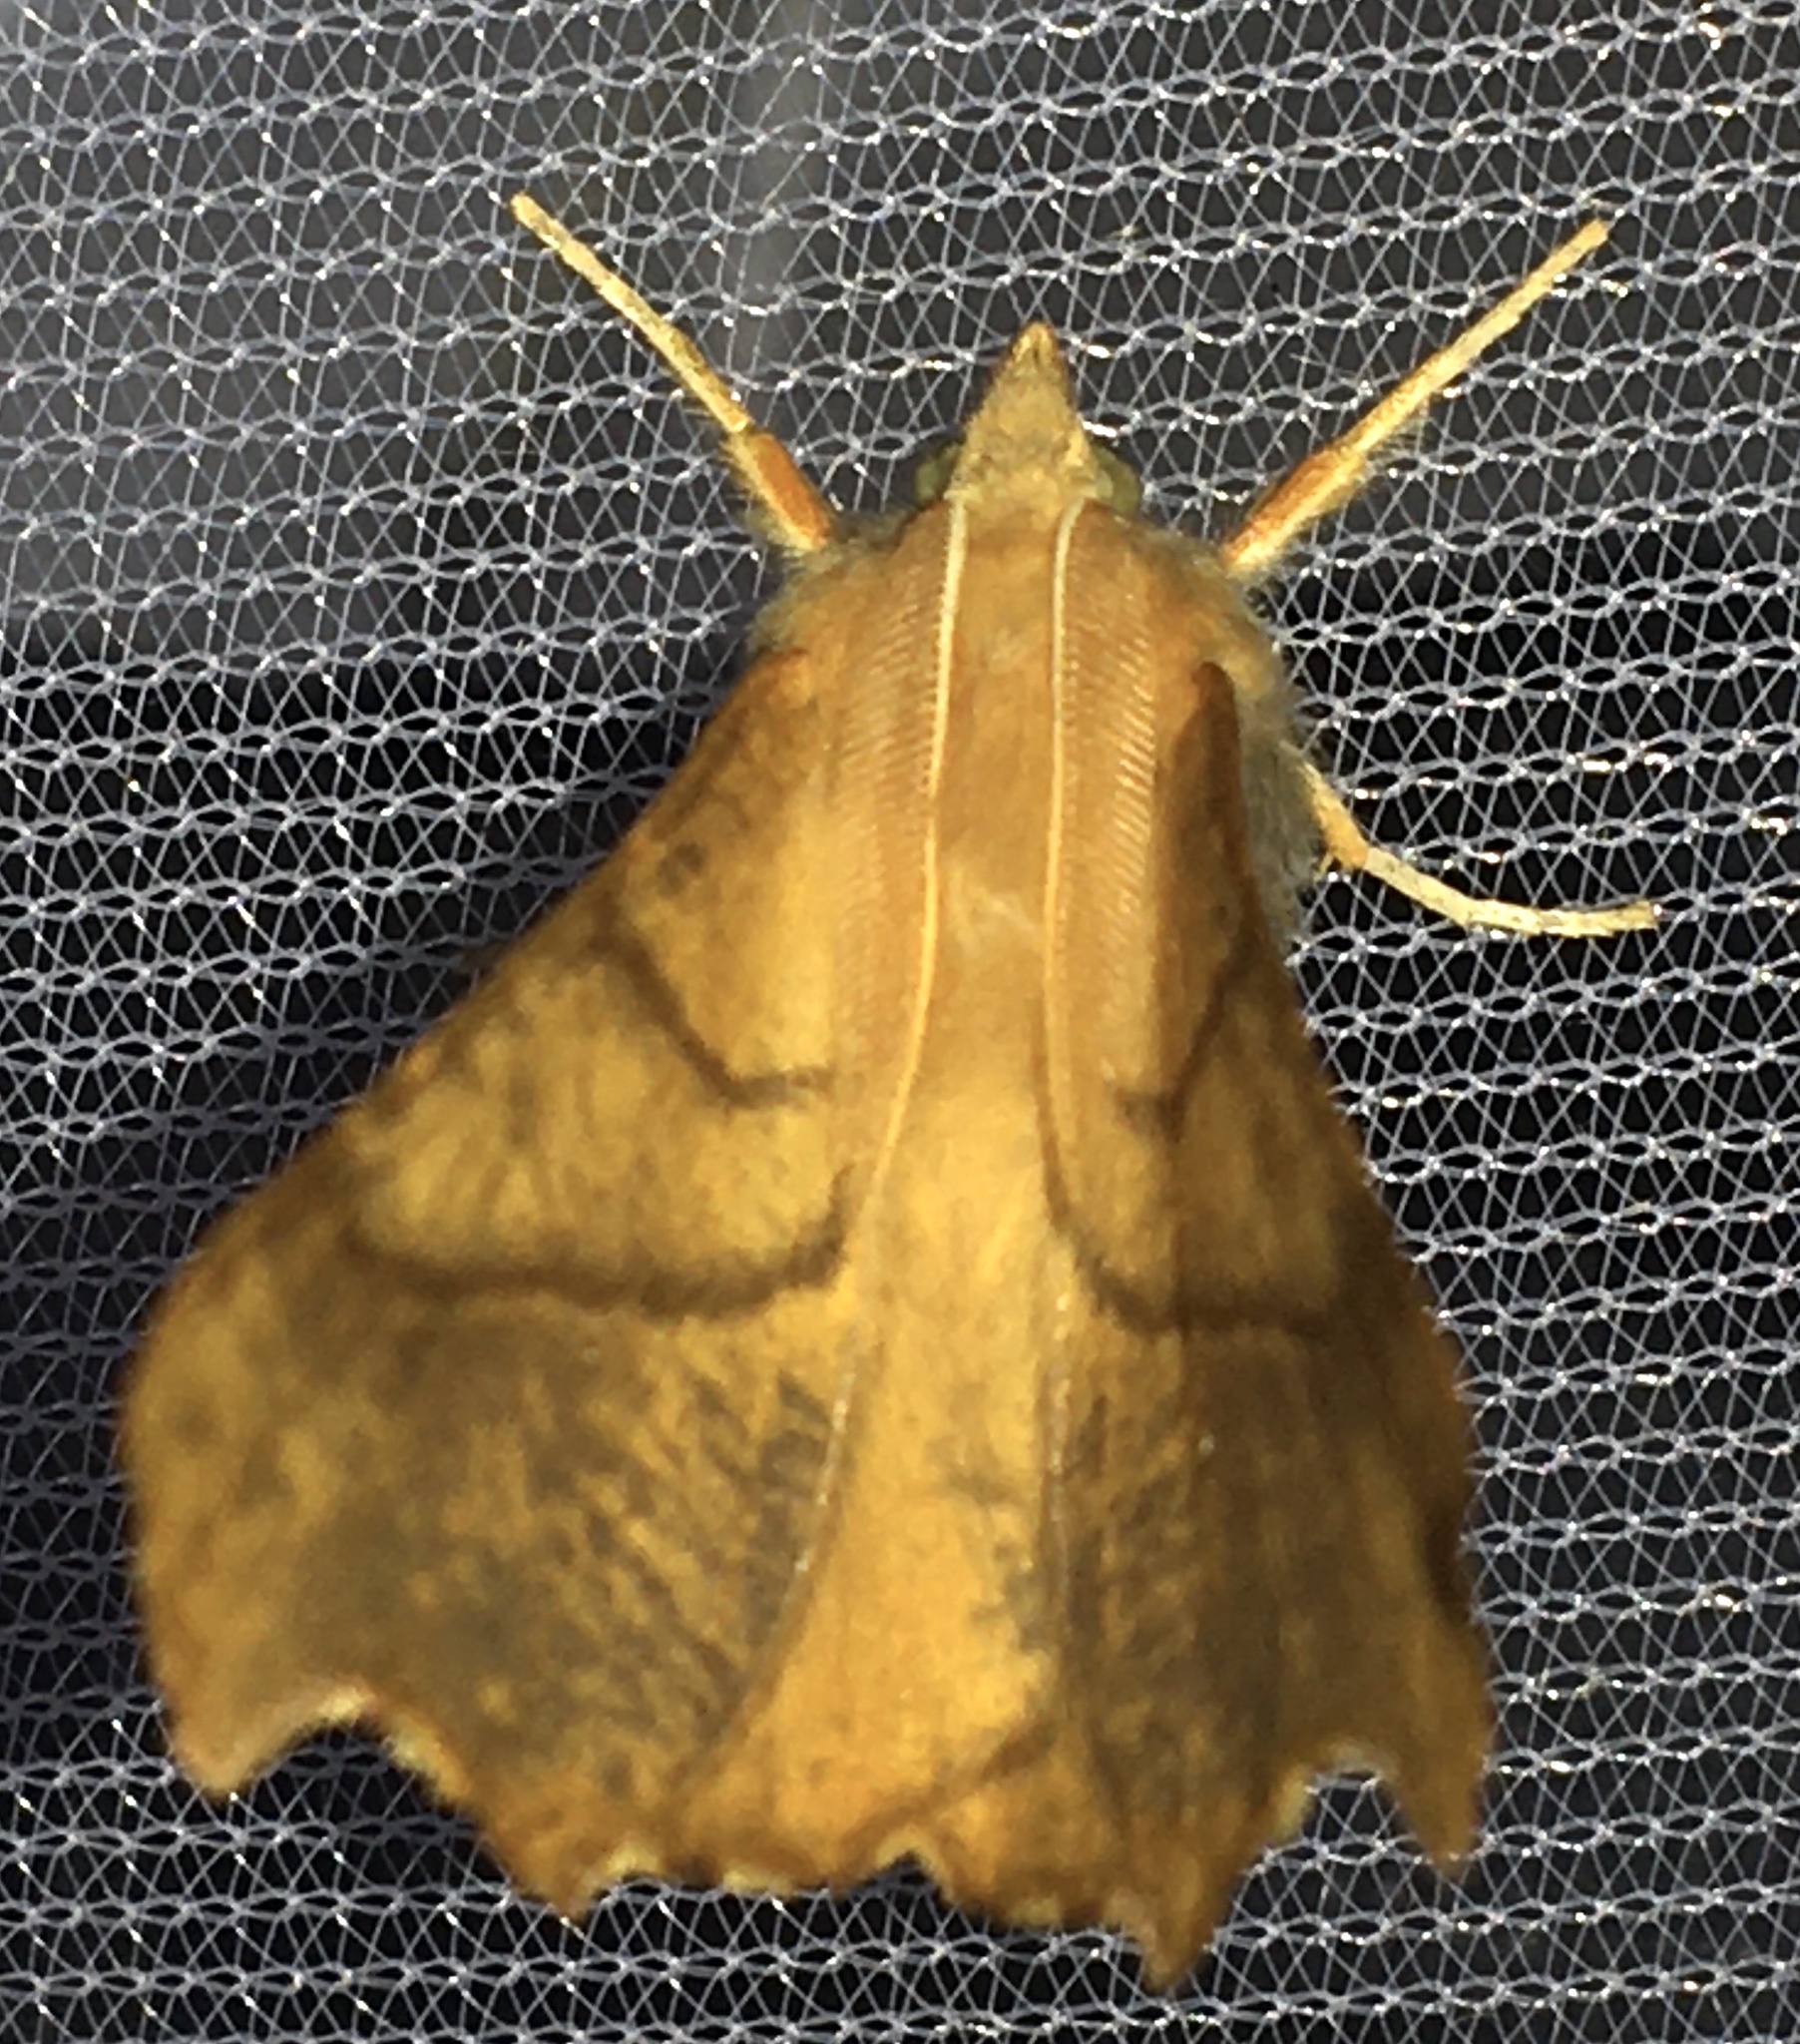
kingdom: Animalia
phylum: Arthropoda
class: Insecta
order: Lepidoptera
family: Geometridae
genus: Ennomos
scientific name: Ennomos fuscantaria
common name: Dusky thorn
